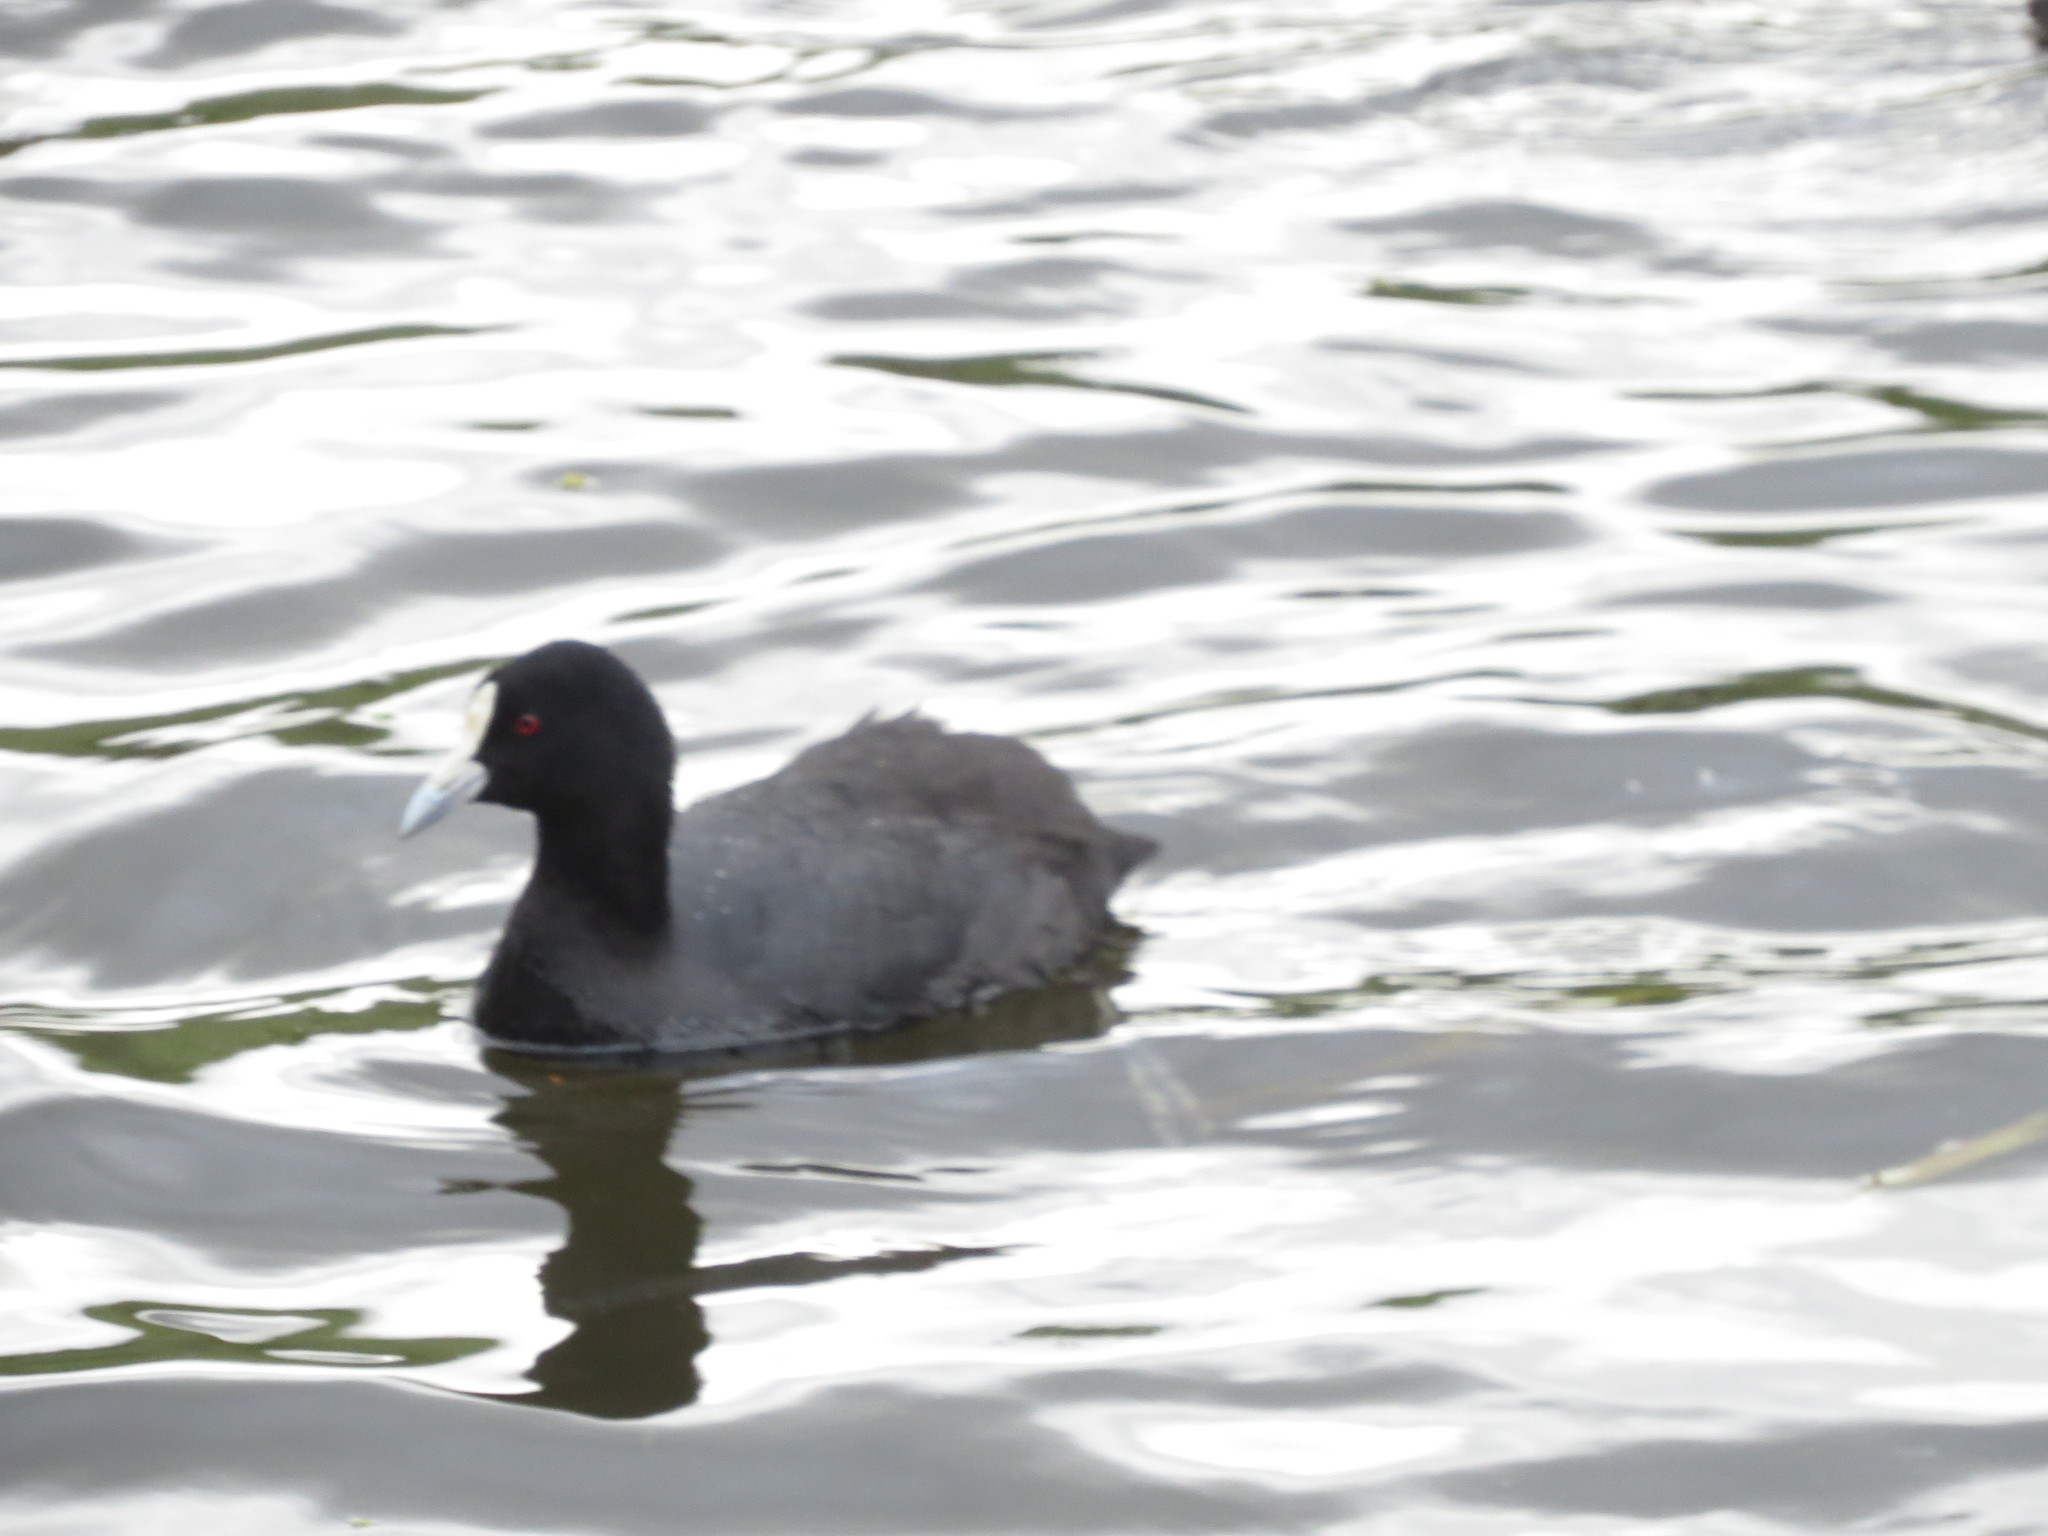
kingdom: Animalia
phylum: Chordata
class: Aves
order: Gruiformes
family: Rallidae
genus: Fulica
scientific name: Fulica atra
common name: Eurasian coot
